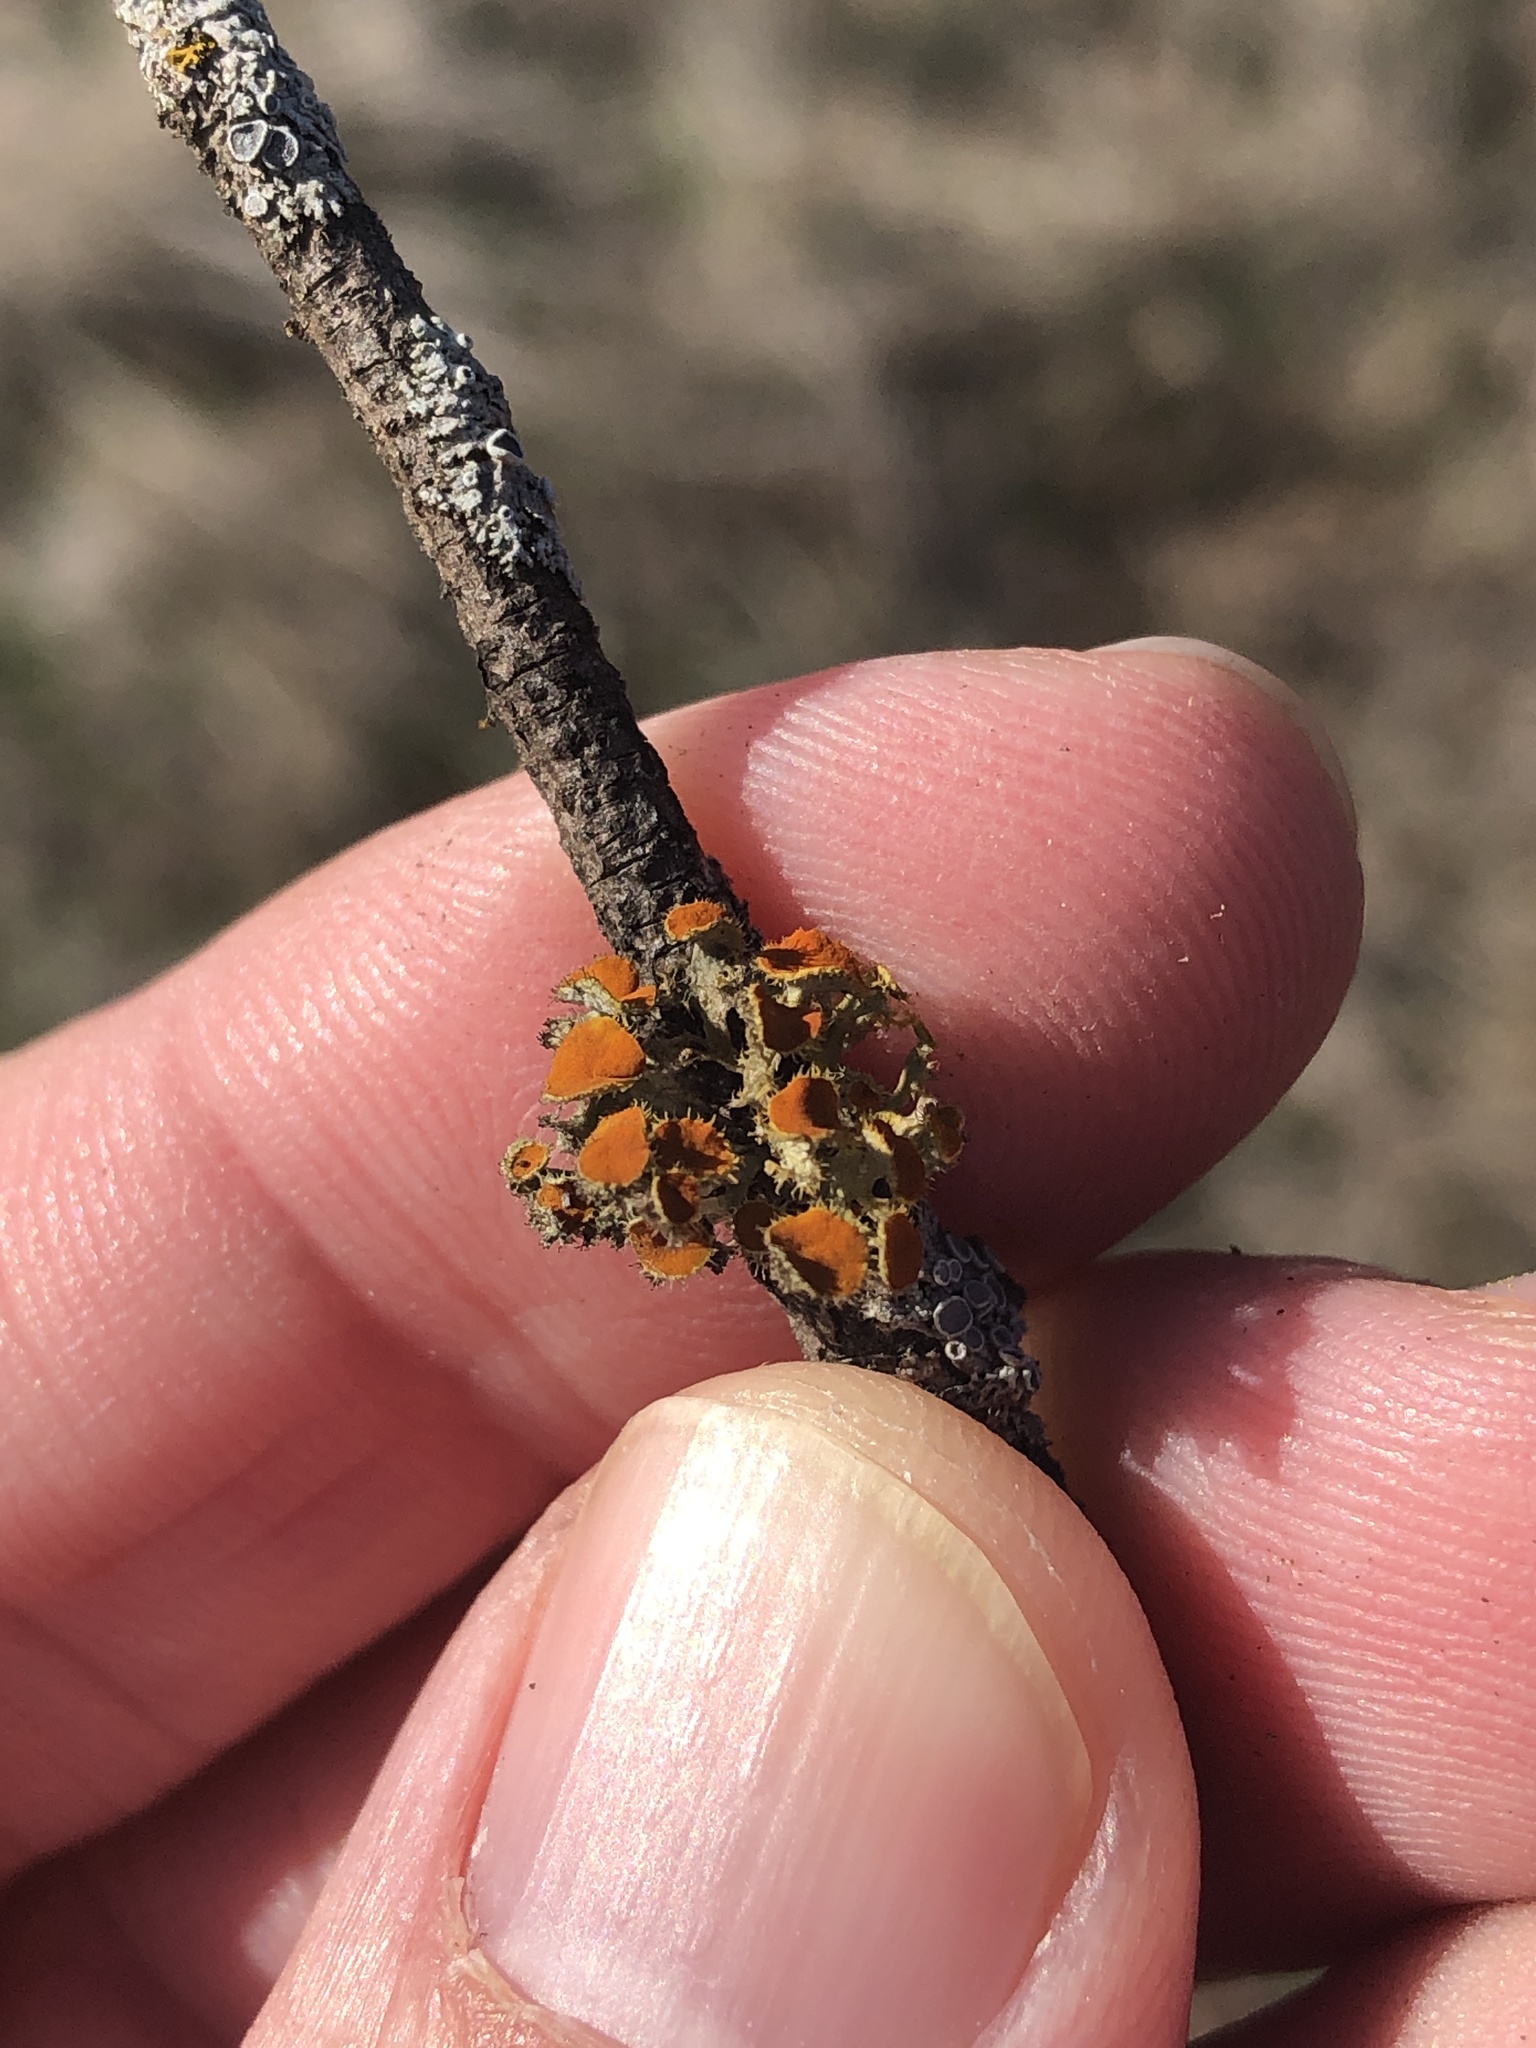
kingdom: Fungi
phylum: Ascomycota
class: Lecanoromycetes
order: Teloschistales
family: Teloschistaceae
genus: Niorma
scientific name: Niorma chrysophthalma
